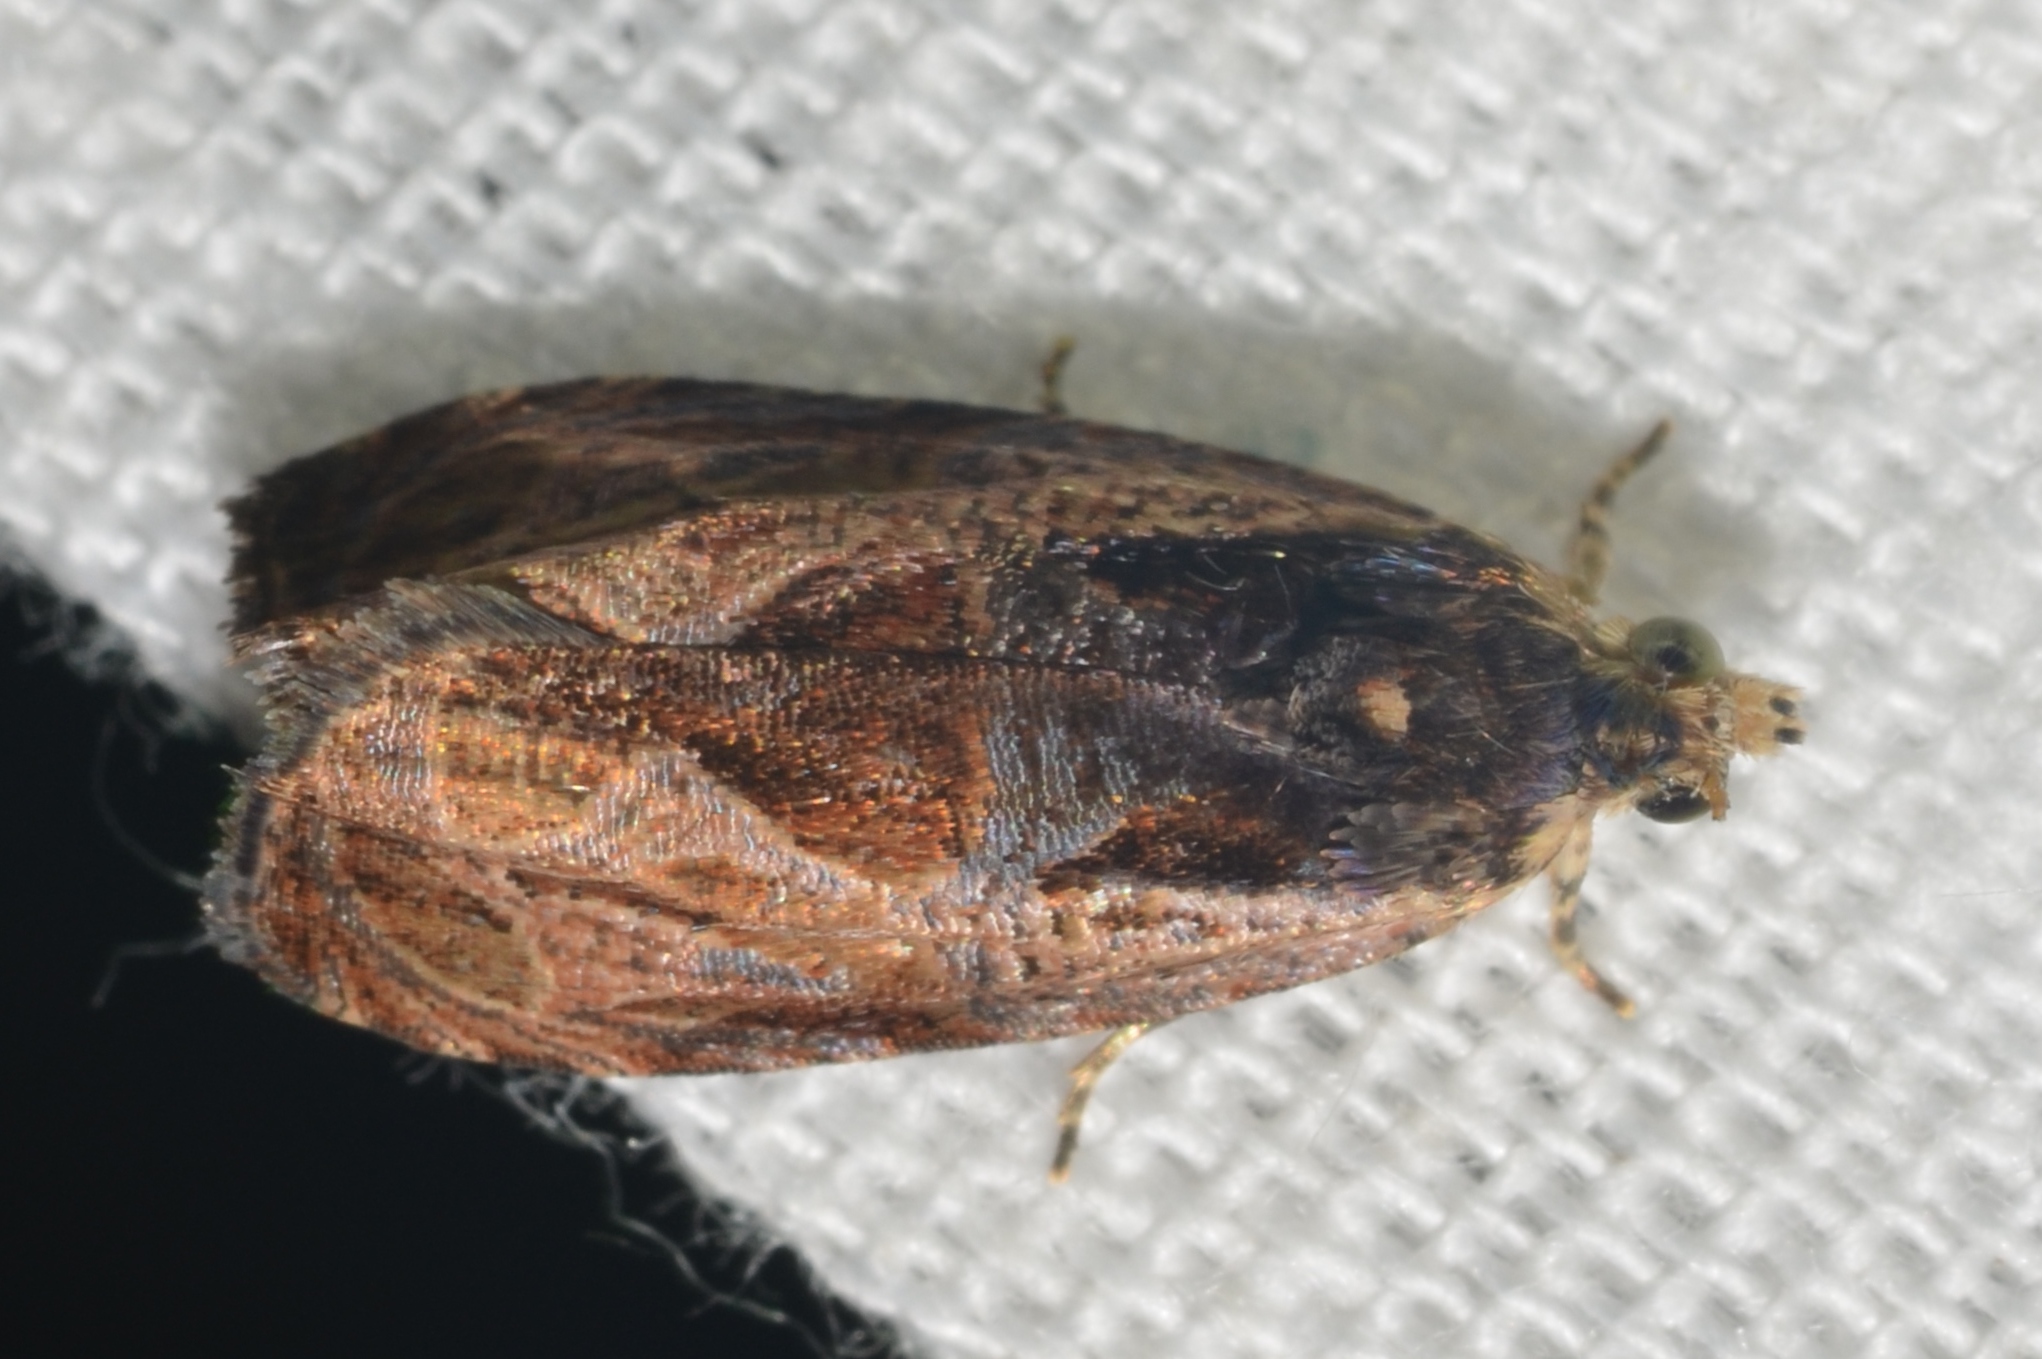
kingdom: Animalia
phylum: Arthropoda
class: Insecta
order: Lepidoptera
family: Tortricidae
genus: Olethreutes
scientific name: Olethreutes nigranum
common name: Variable nigranum moth
